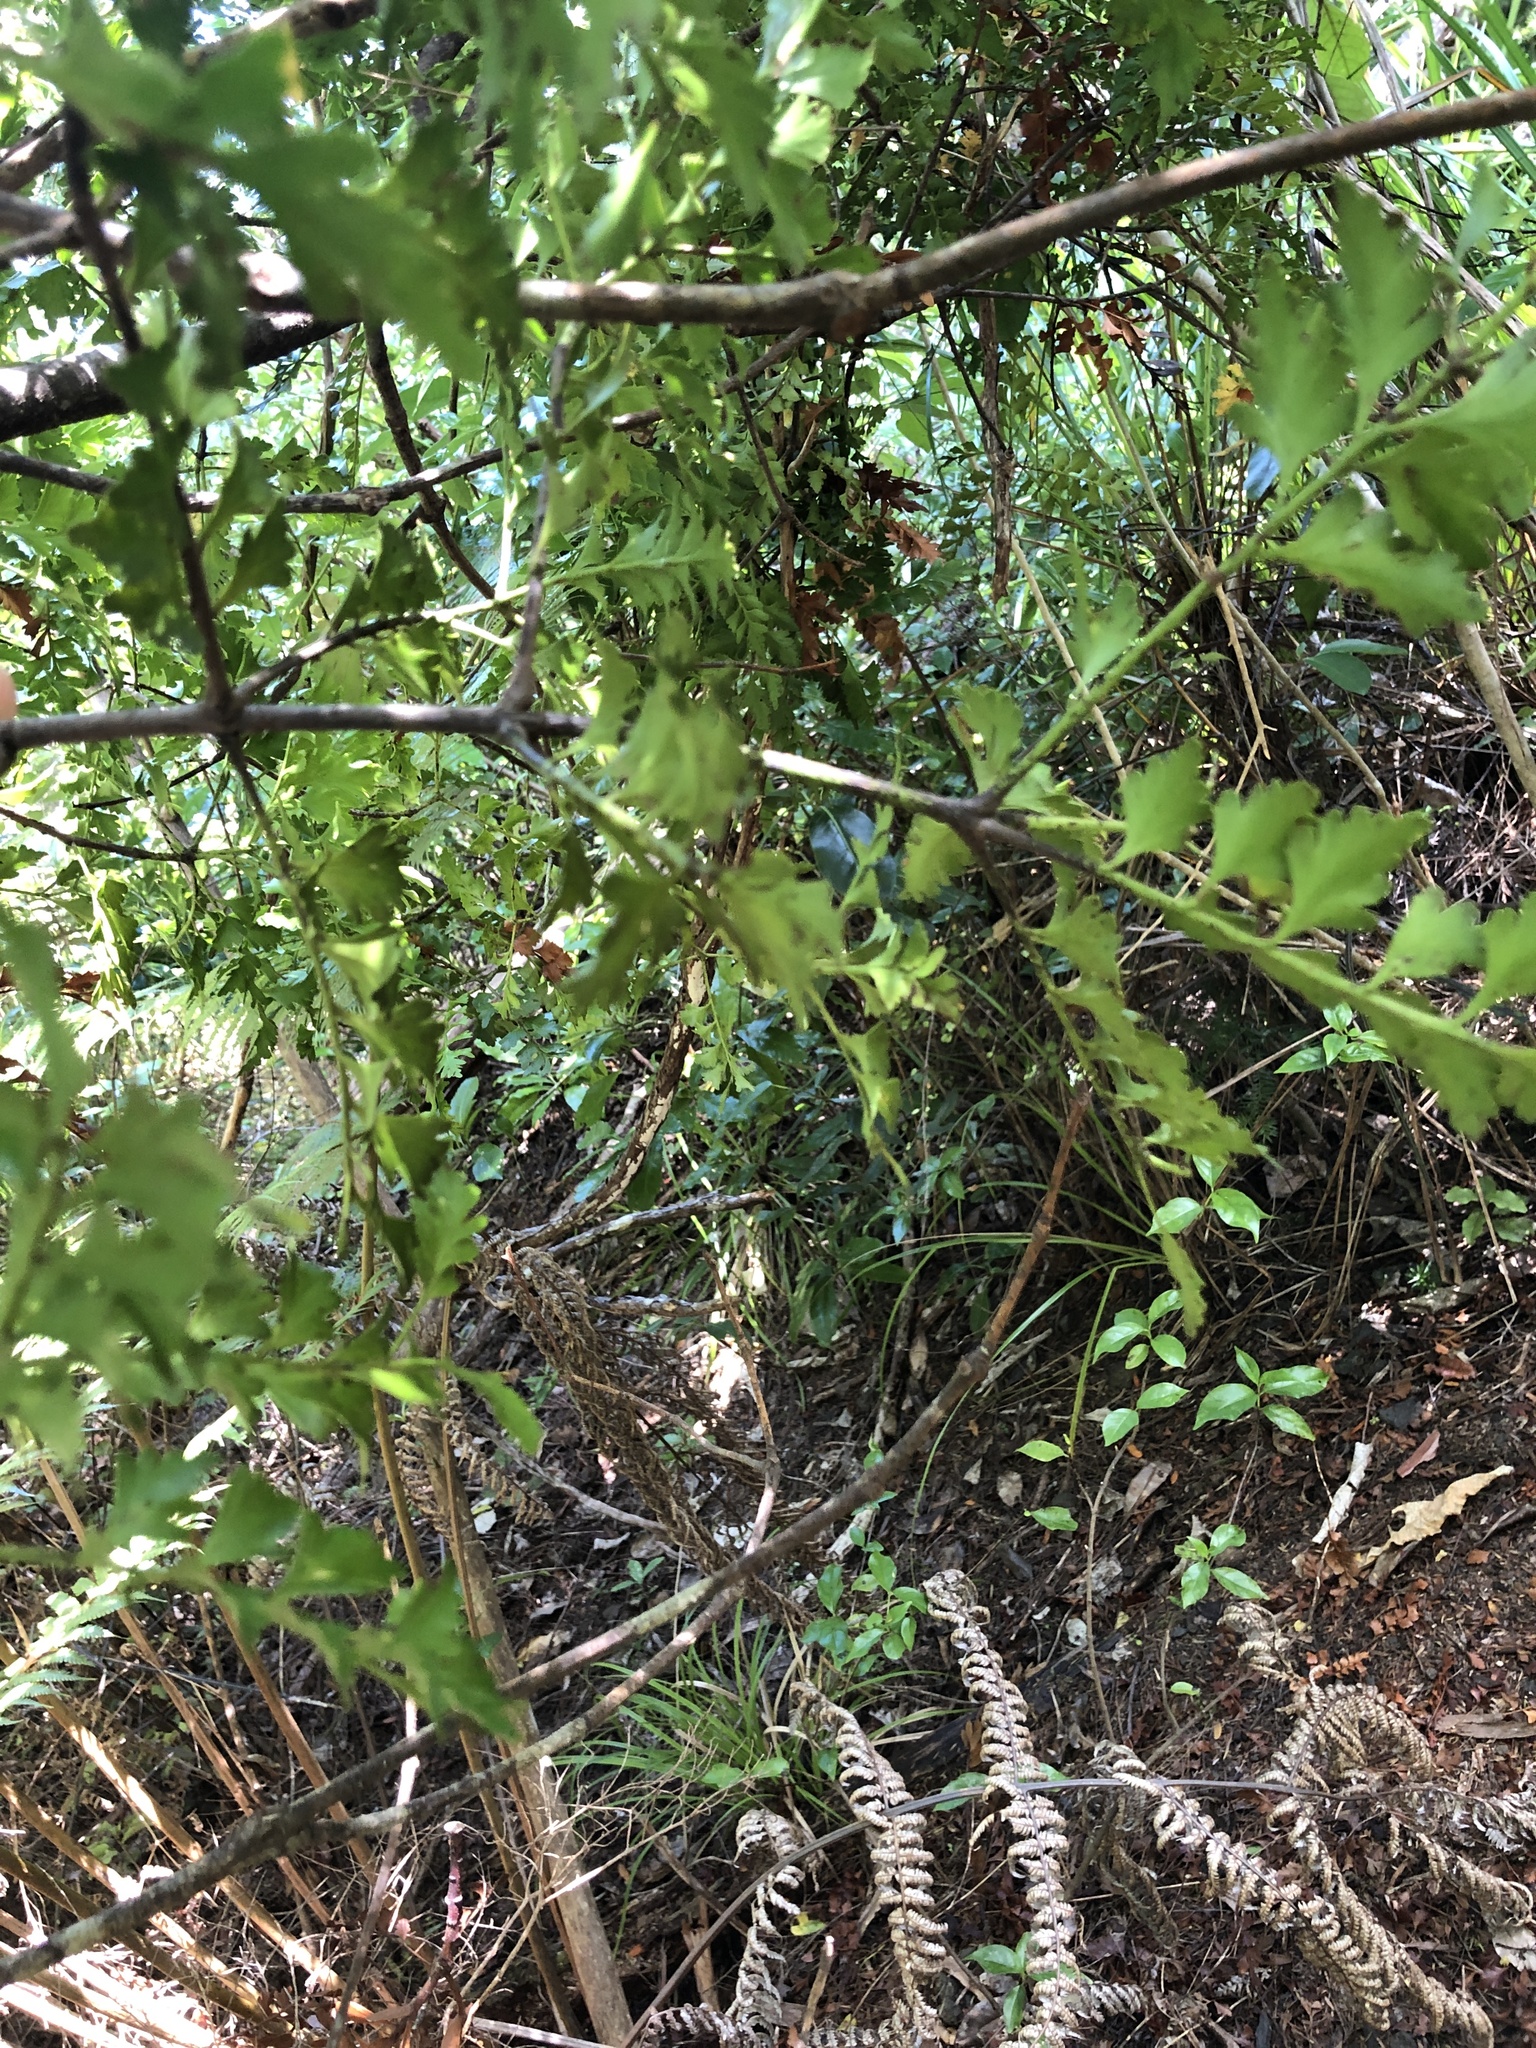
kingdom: Plantae
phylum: Tracheophyta
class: Pinopsida
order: Pinales
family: Phyllocladaceae
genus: Phyllocladus
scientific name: Phyllocladus toatoa
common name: Celery-top pine
